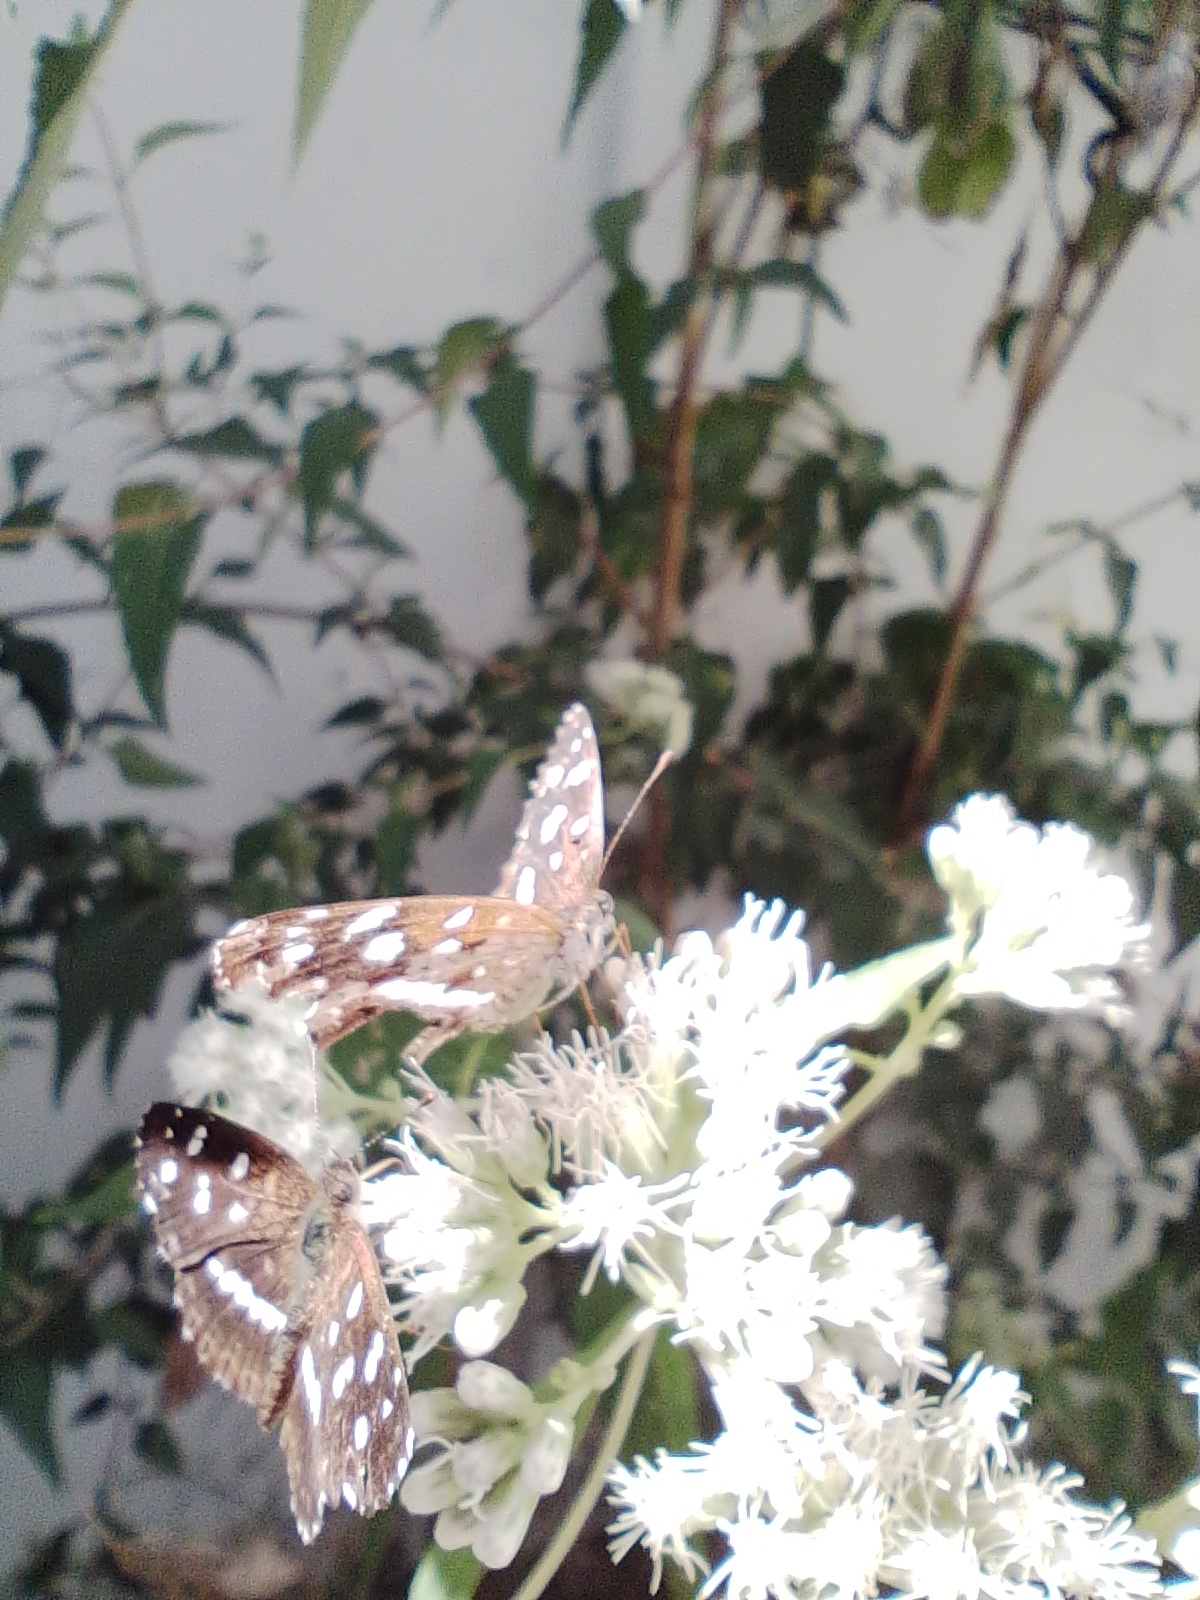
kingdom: Animalia
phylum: Arthropoda
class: Insecta
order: Lepidoptera
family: Nymphalidae
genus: Ortilia
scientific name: Ortilia ithra
